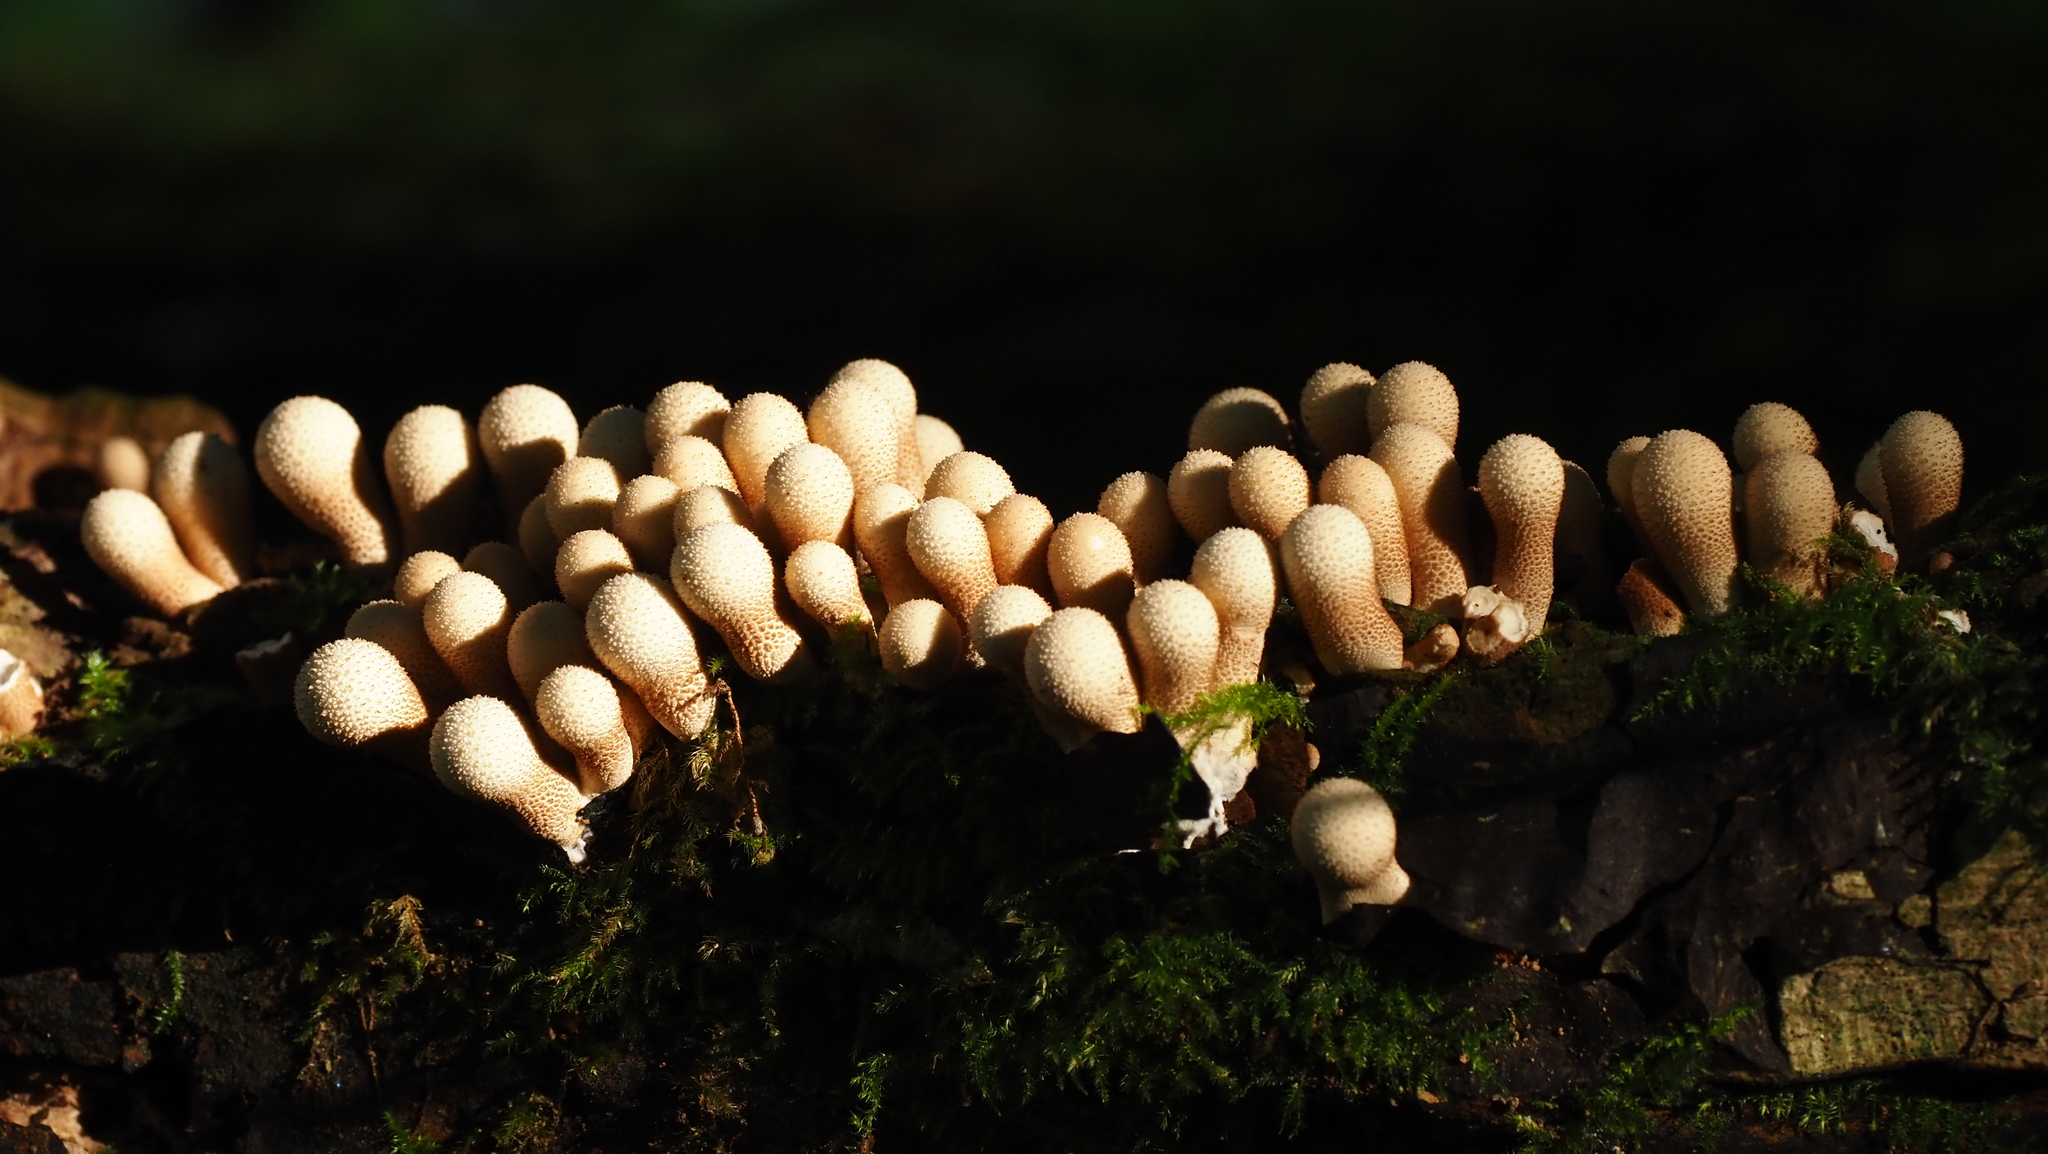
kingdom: Fungi
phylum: Basidiomycota
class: Agaricomycetes
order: Agaricales
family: Lycoperdaceae
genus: Apioperdon
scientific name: Apioperdon pyriforme
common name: Pear-shaped puffball
